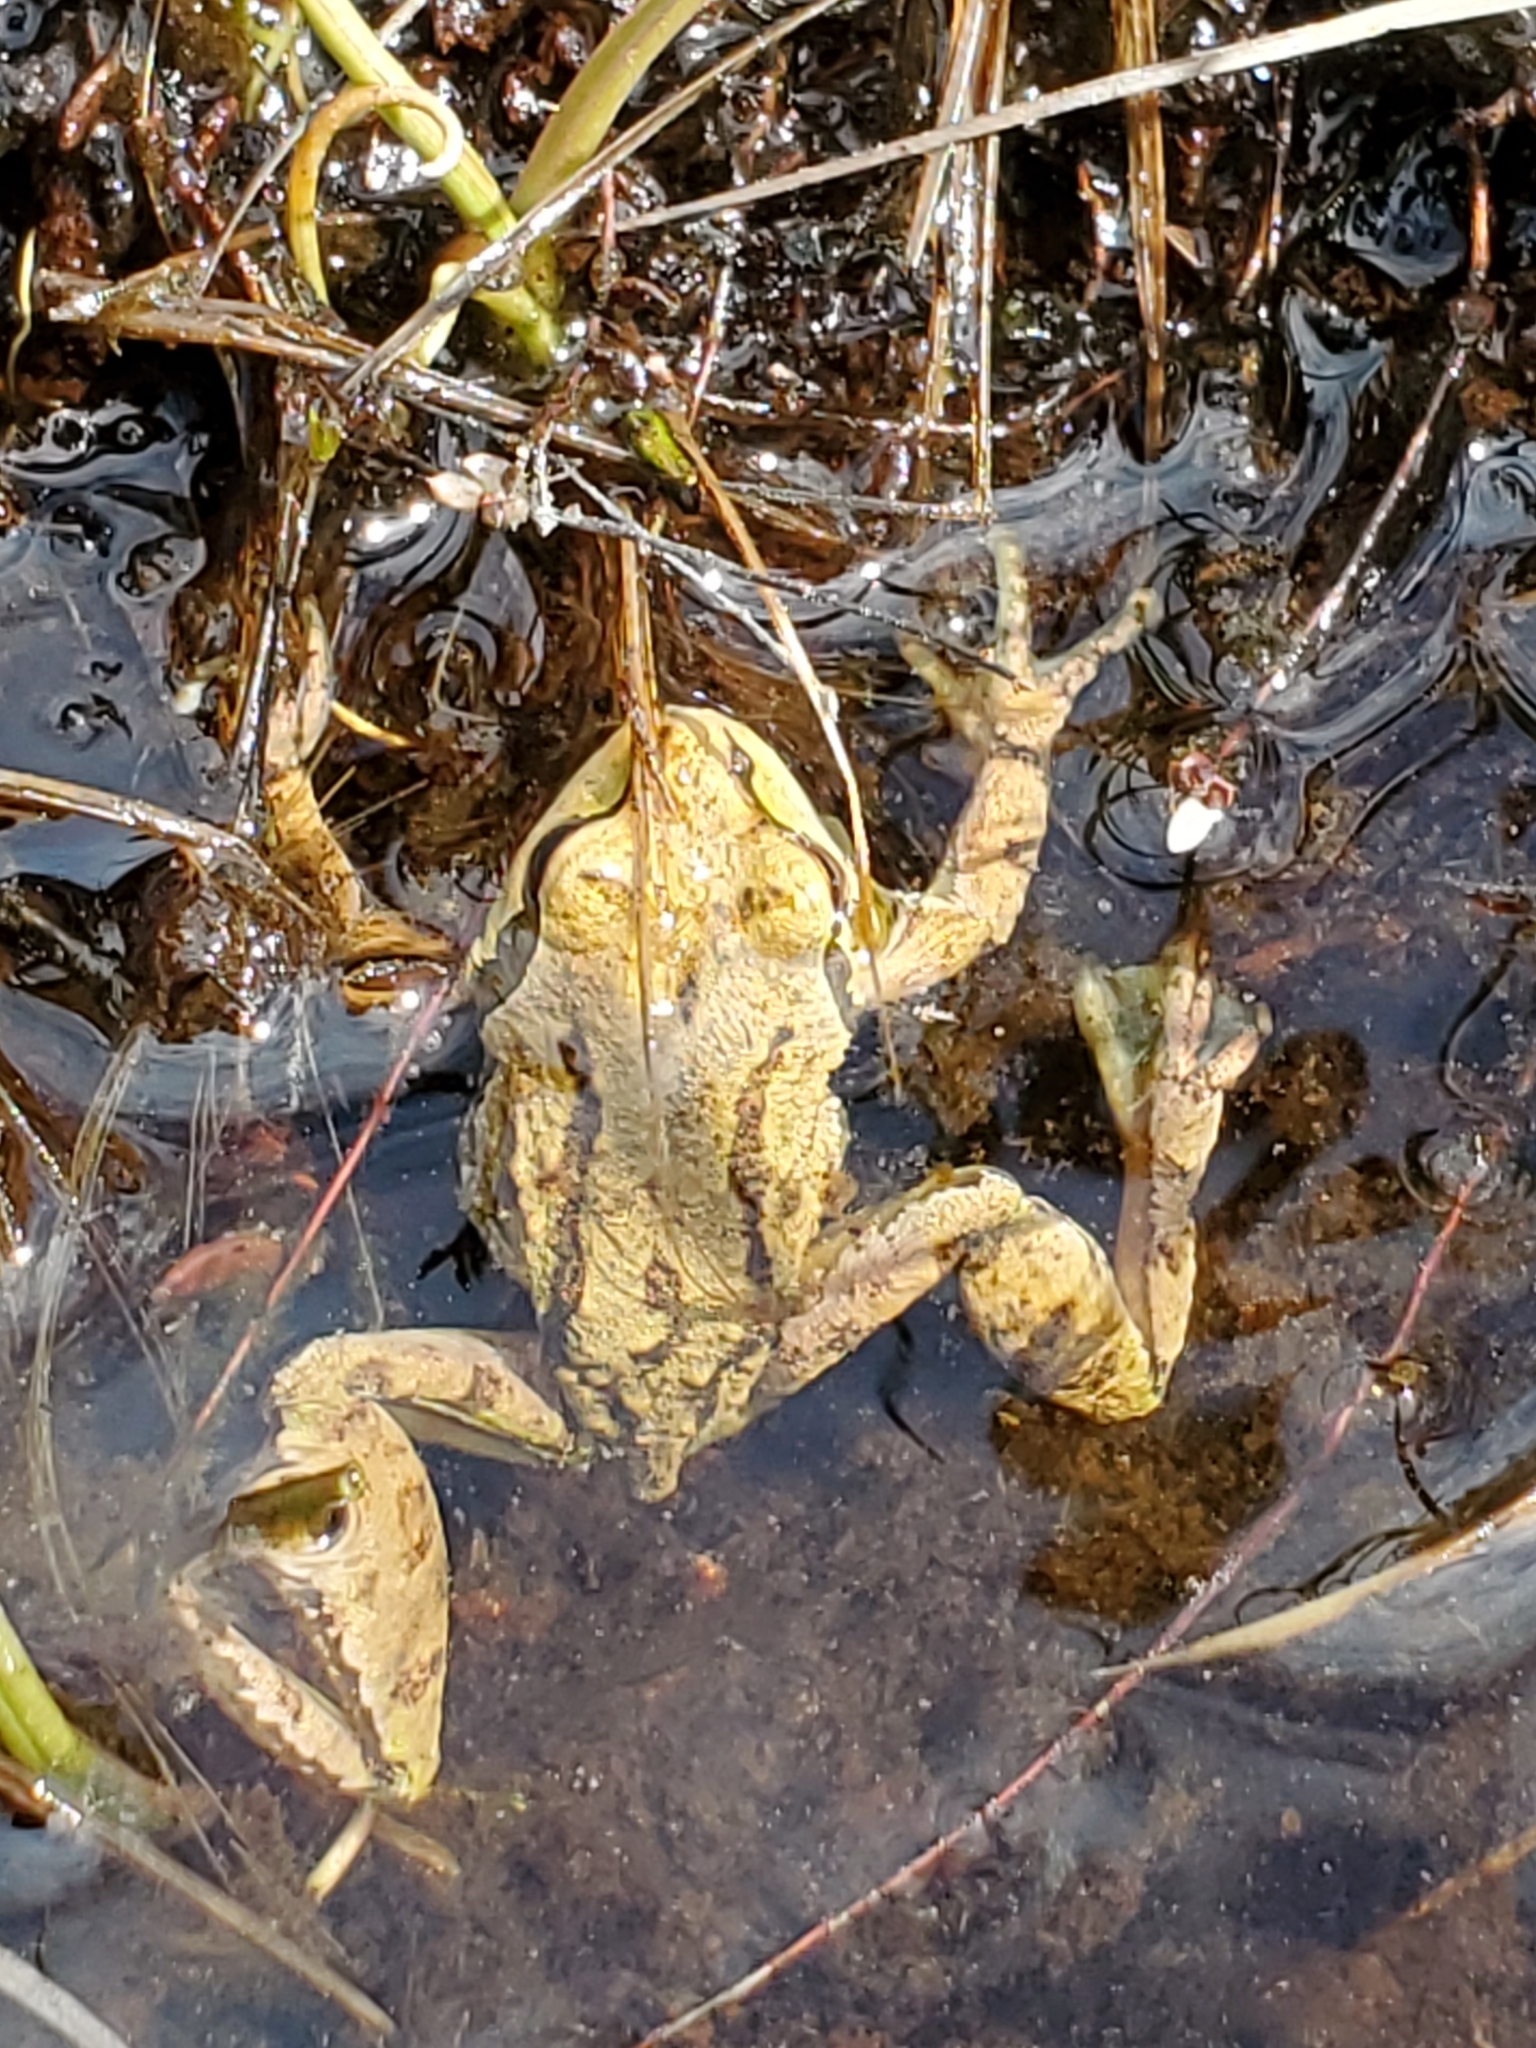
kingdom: Animalia
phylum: Chordata
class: Amphibia
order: Anura
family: Hylidae
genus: Pseudacris
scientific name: Pseudacris regilla
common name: Pacific chorus frog
